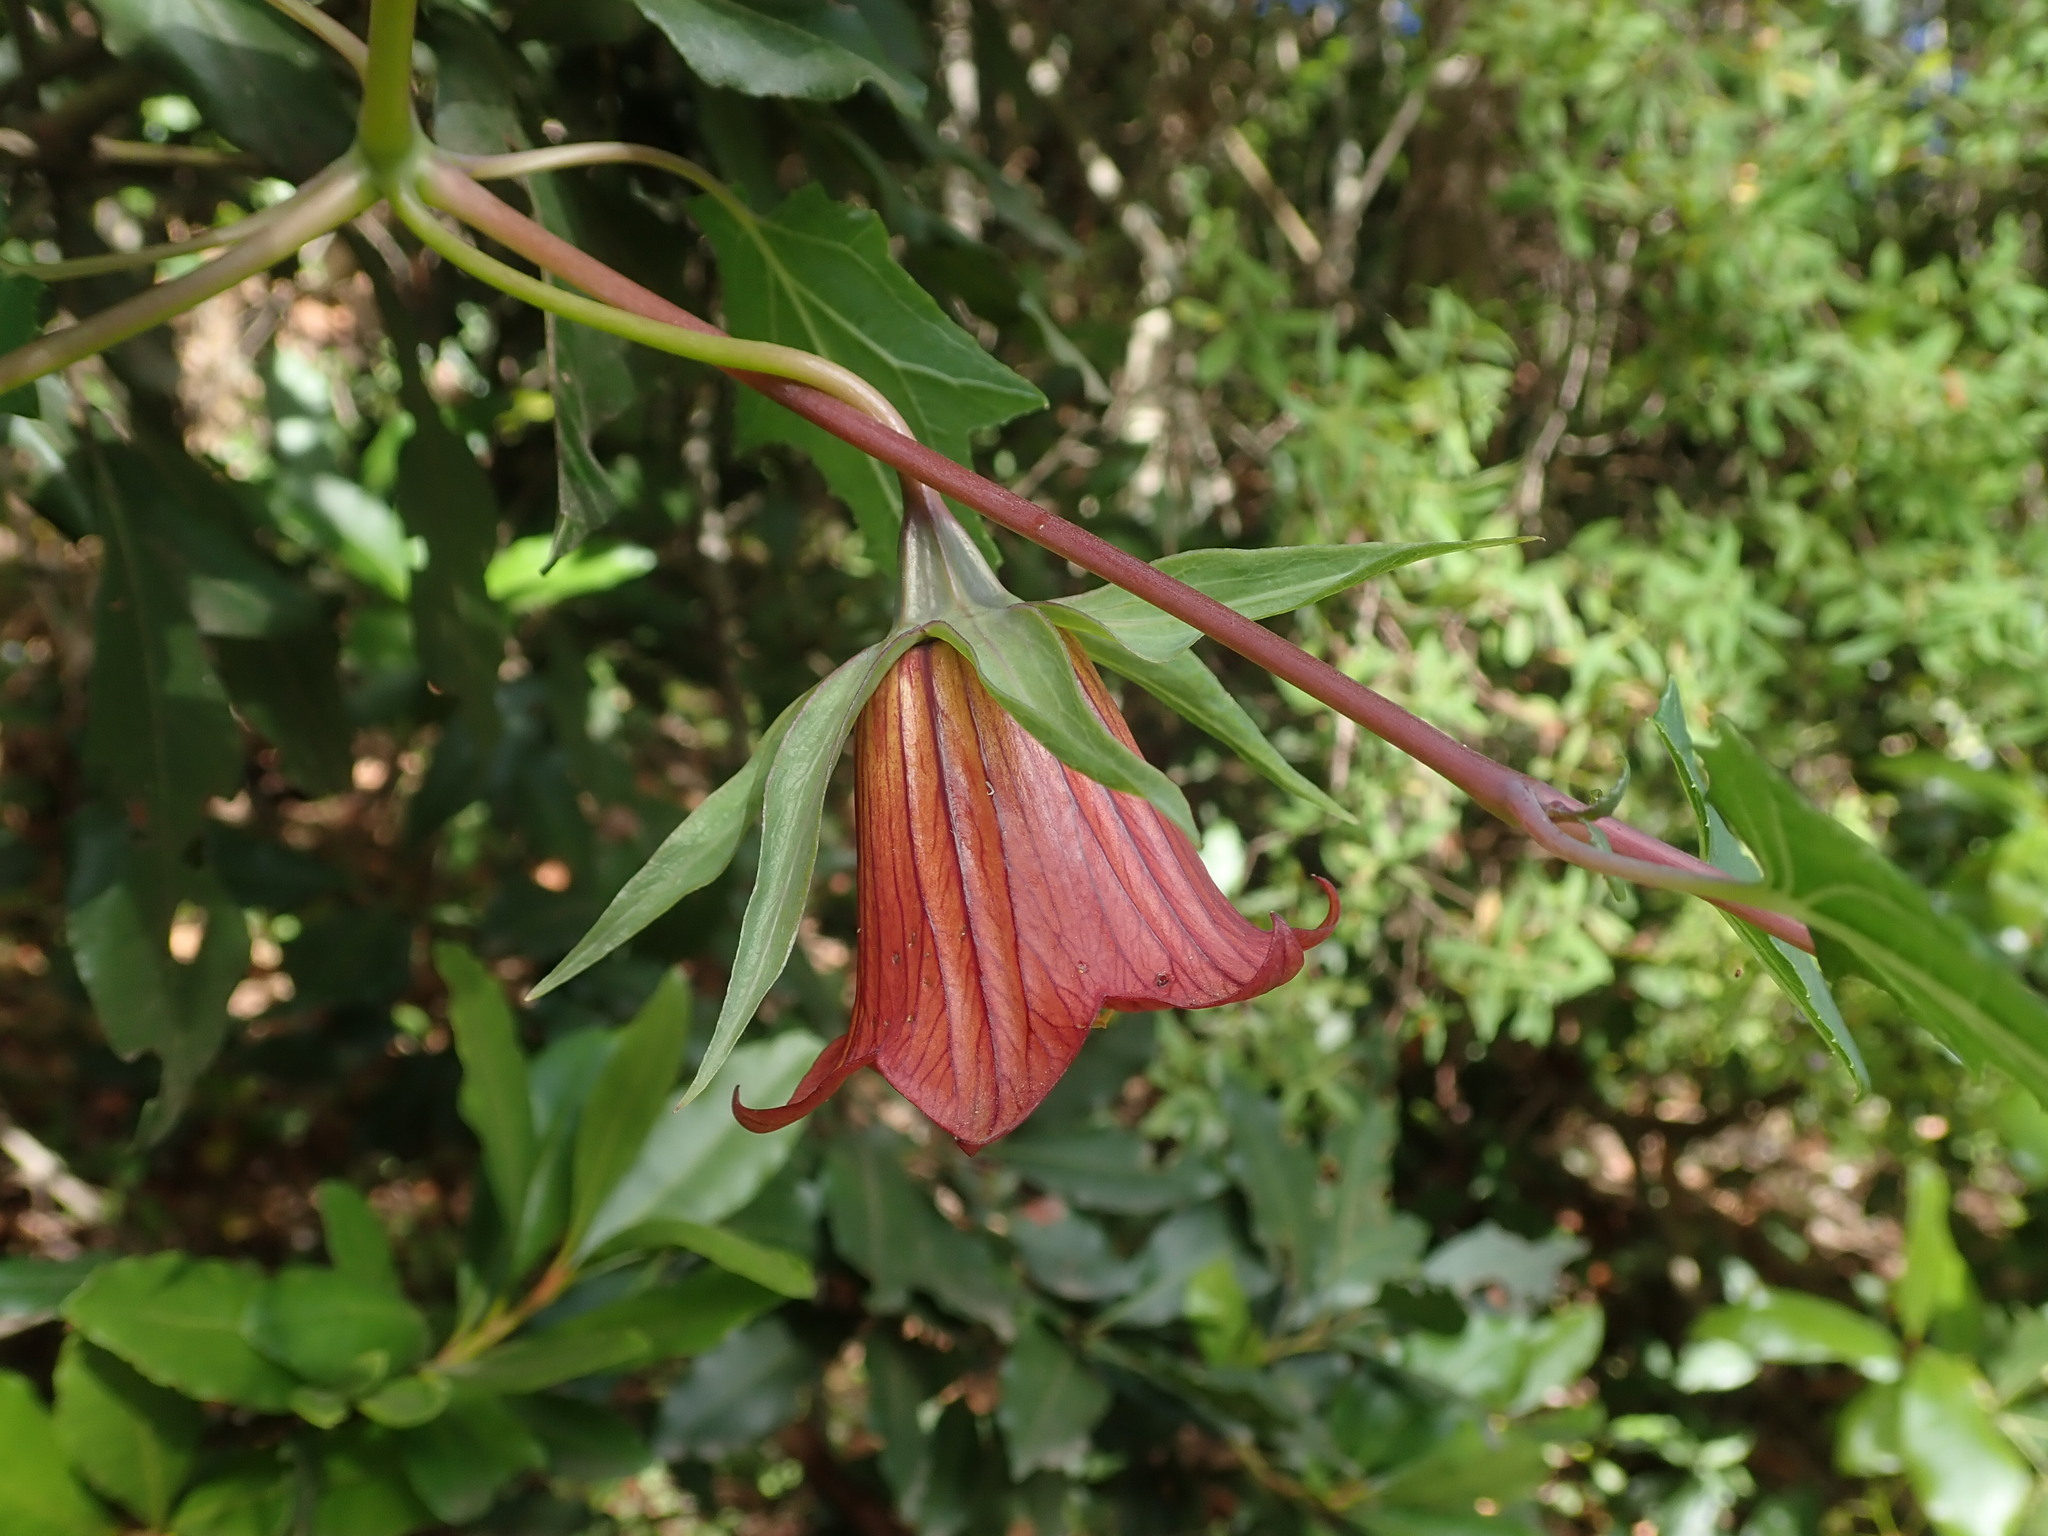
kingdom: Plantae
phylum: Tracheophyta
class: Magnoliopsida
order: Asterales
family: Campanulaceae
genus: Canarina
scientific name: Canarina canariensis
